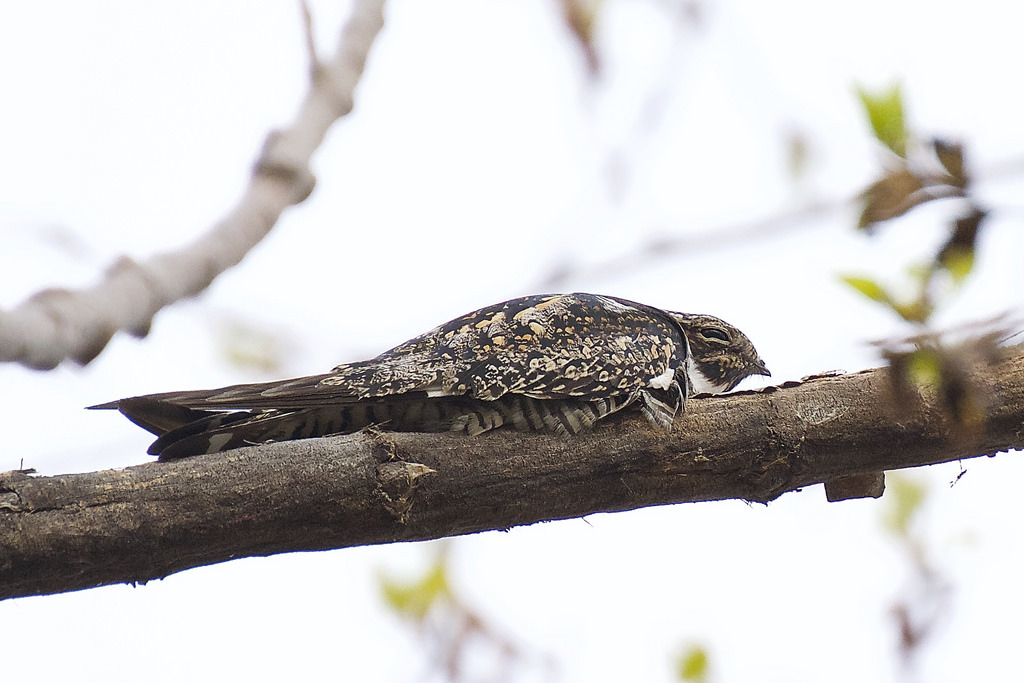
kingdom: Animalia
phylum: Chordata
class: Aves
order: Caprimulgiformes
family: Caprimulgidae
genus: Chordeiles
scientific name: Chordeiles minor
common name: Common nighthawk
